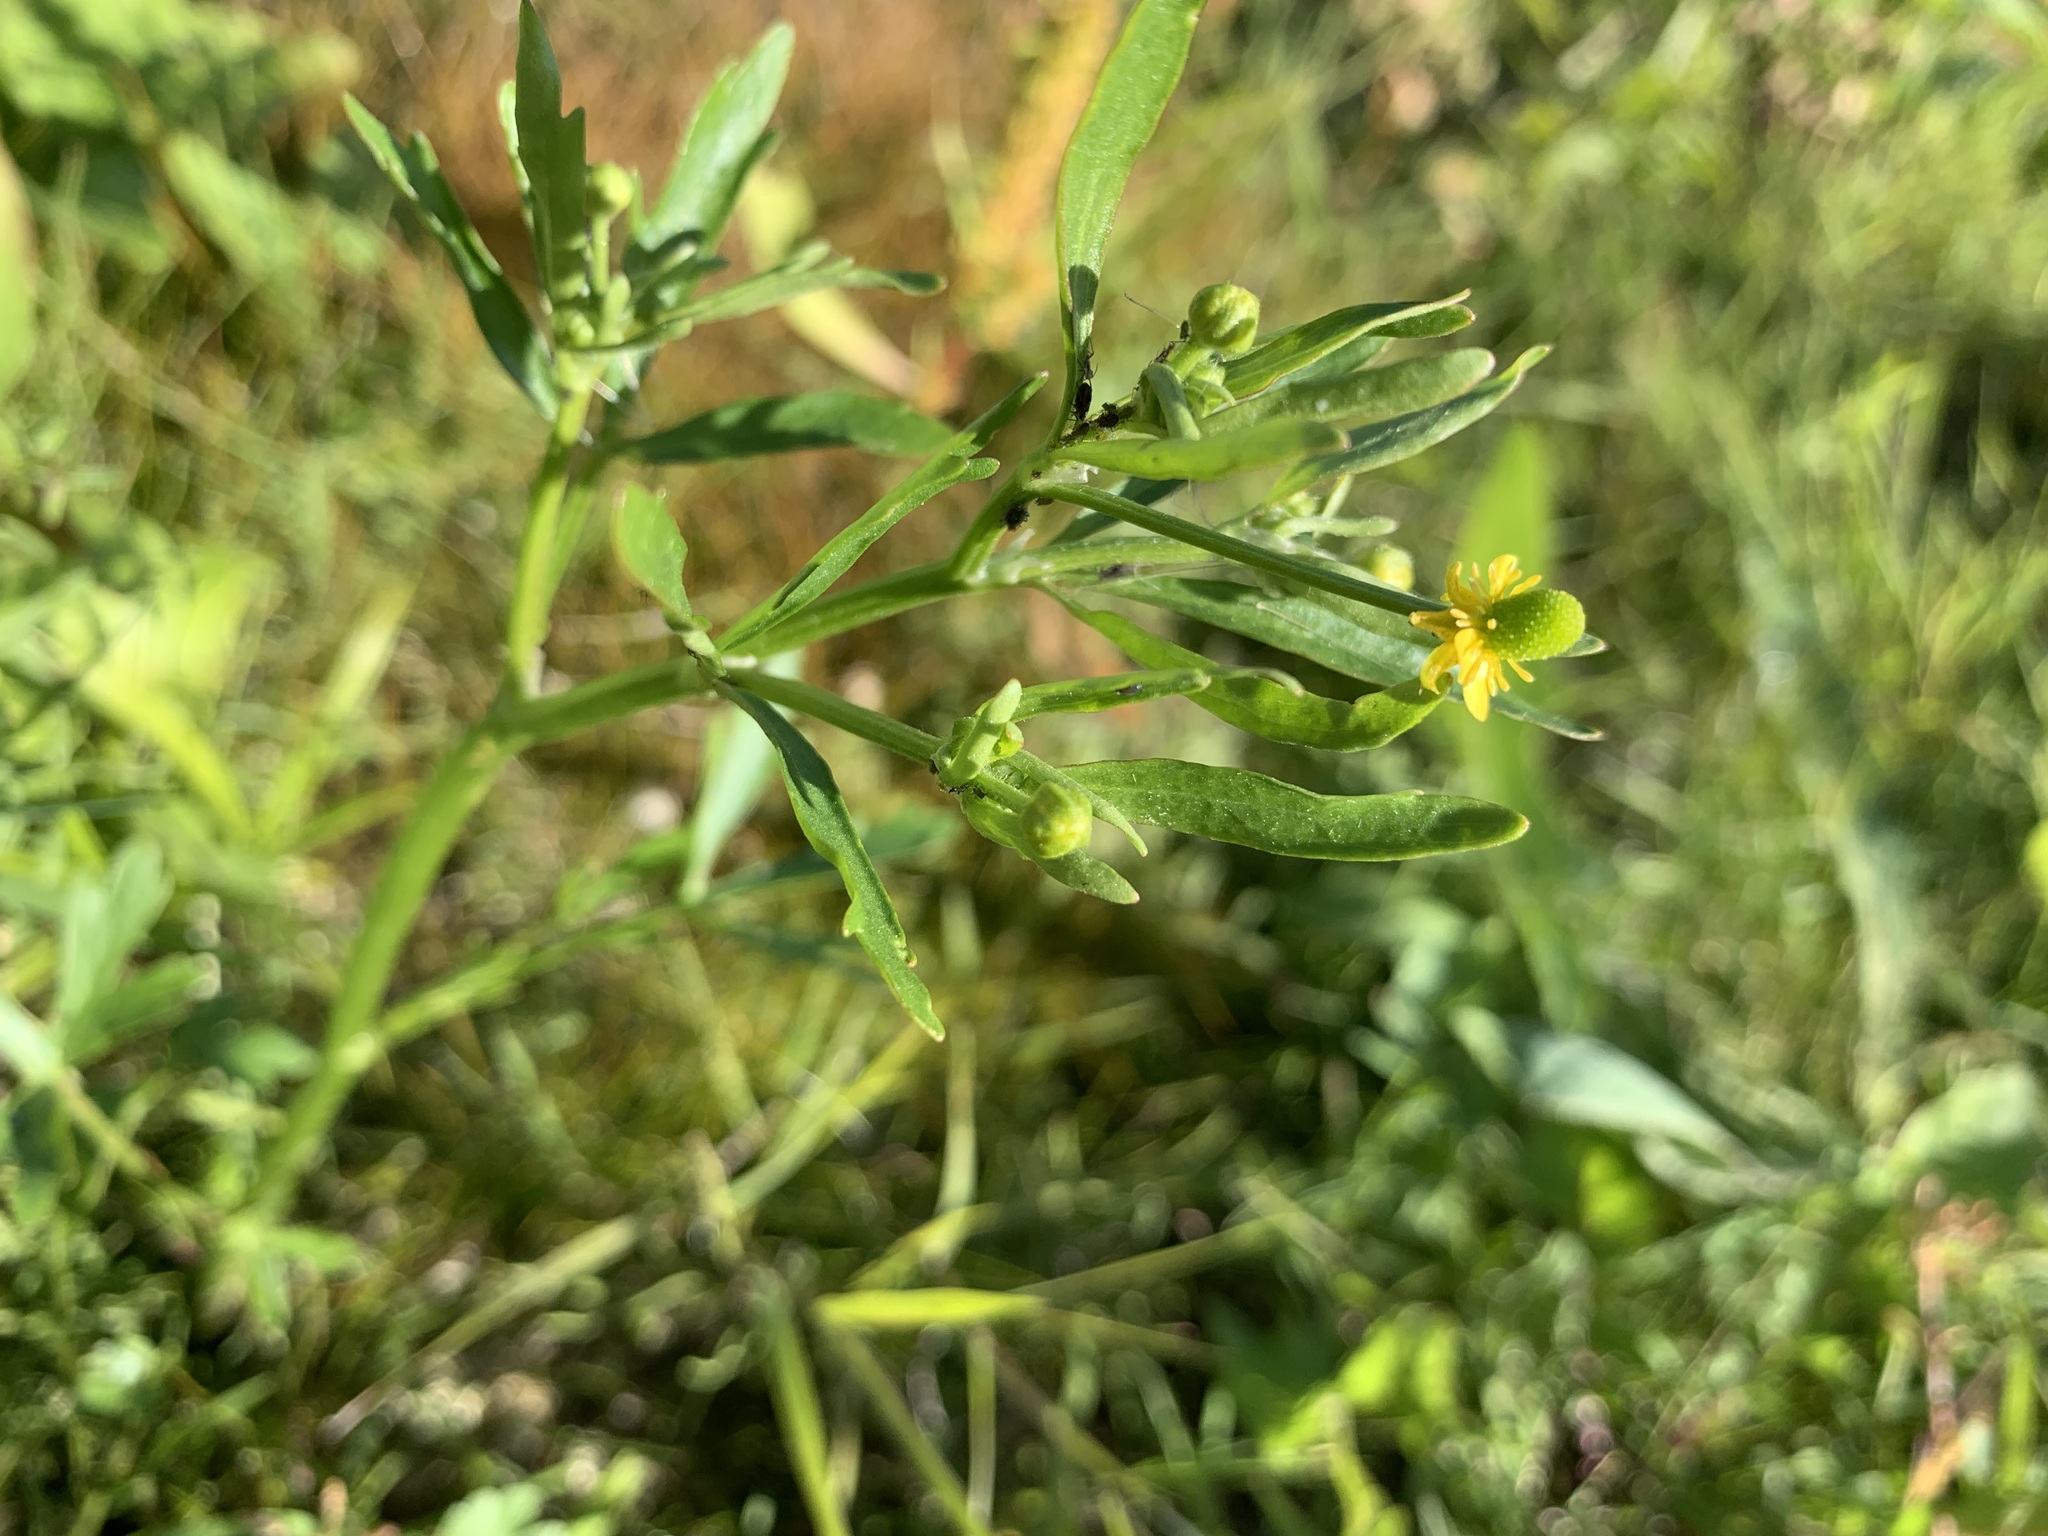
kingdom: Plantae
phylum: Tracheophyta
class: Magnoliopsida
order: Ranunculales
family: Ranunculaceae
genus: Ranunculus
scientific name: Ranunculus sceleratus
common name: Celery-leaved buttercup
